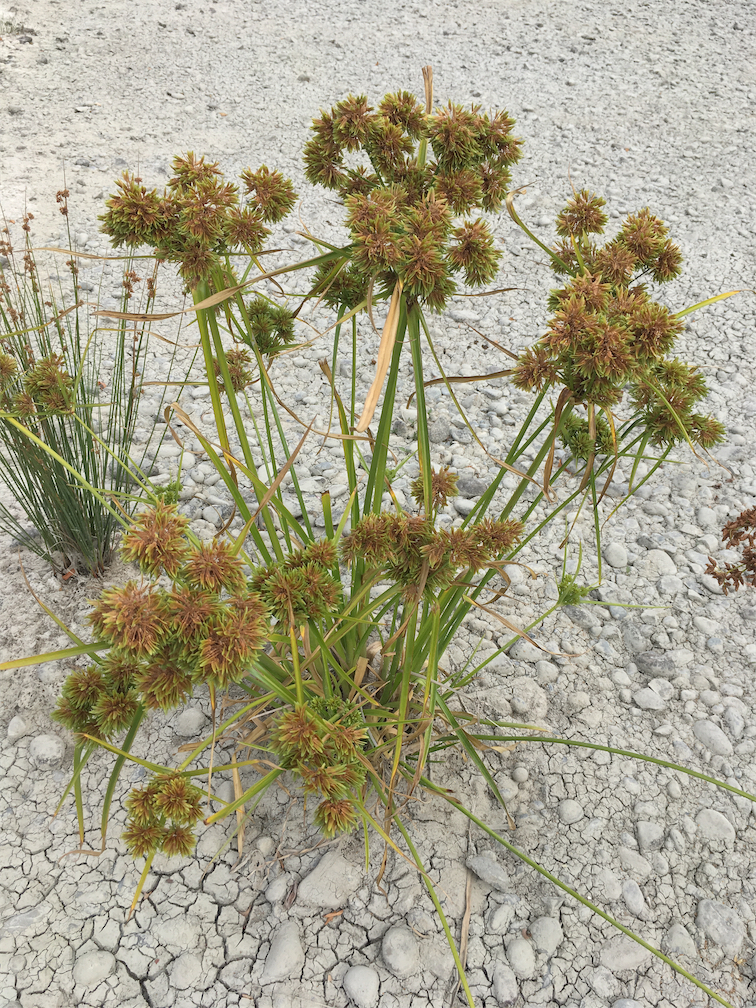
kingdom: Plantae
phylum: Tracheophyta
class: Liliopsida
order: Poales
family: Cyperaceae
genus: Cyperus
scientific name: Cyperus eragrostis
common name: Tall flatsedge
